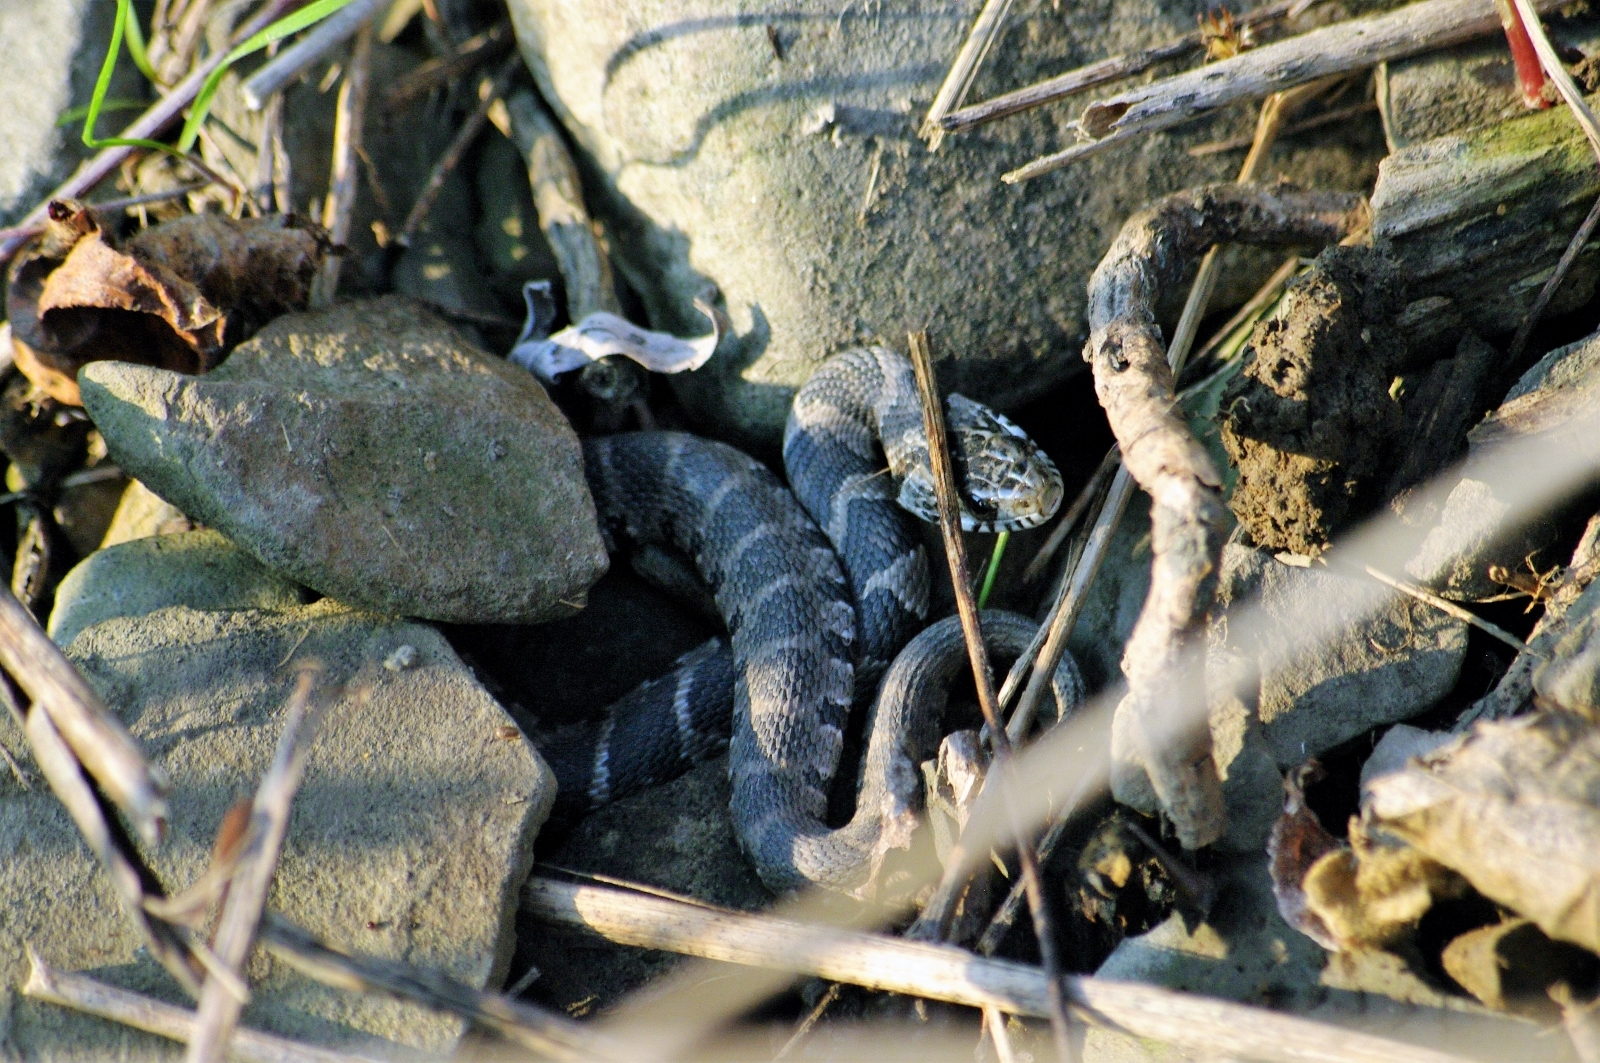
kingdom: Animalia
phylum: Chordata
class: Squamata
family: Colubridae
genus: Nerodia
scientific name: Nerodia sipedon
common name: Northern water snake
